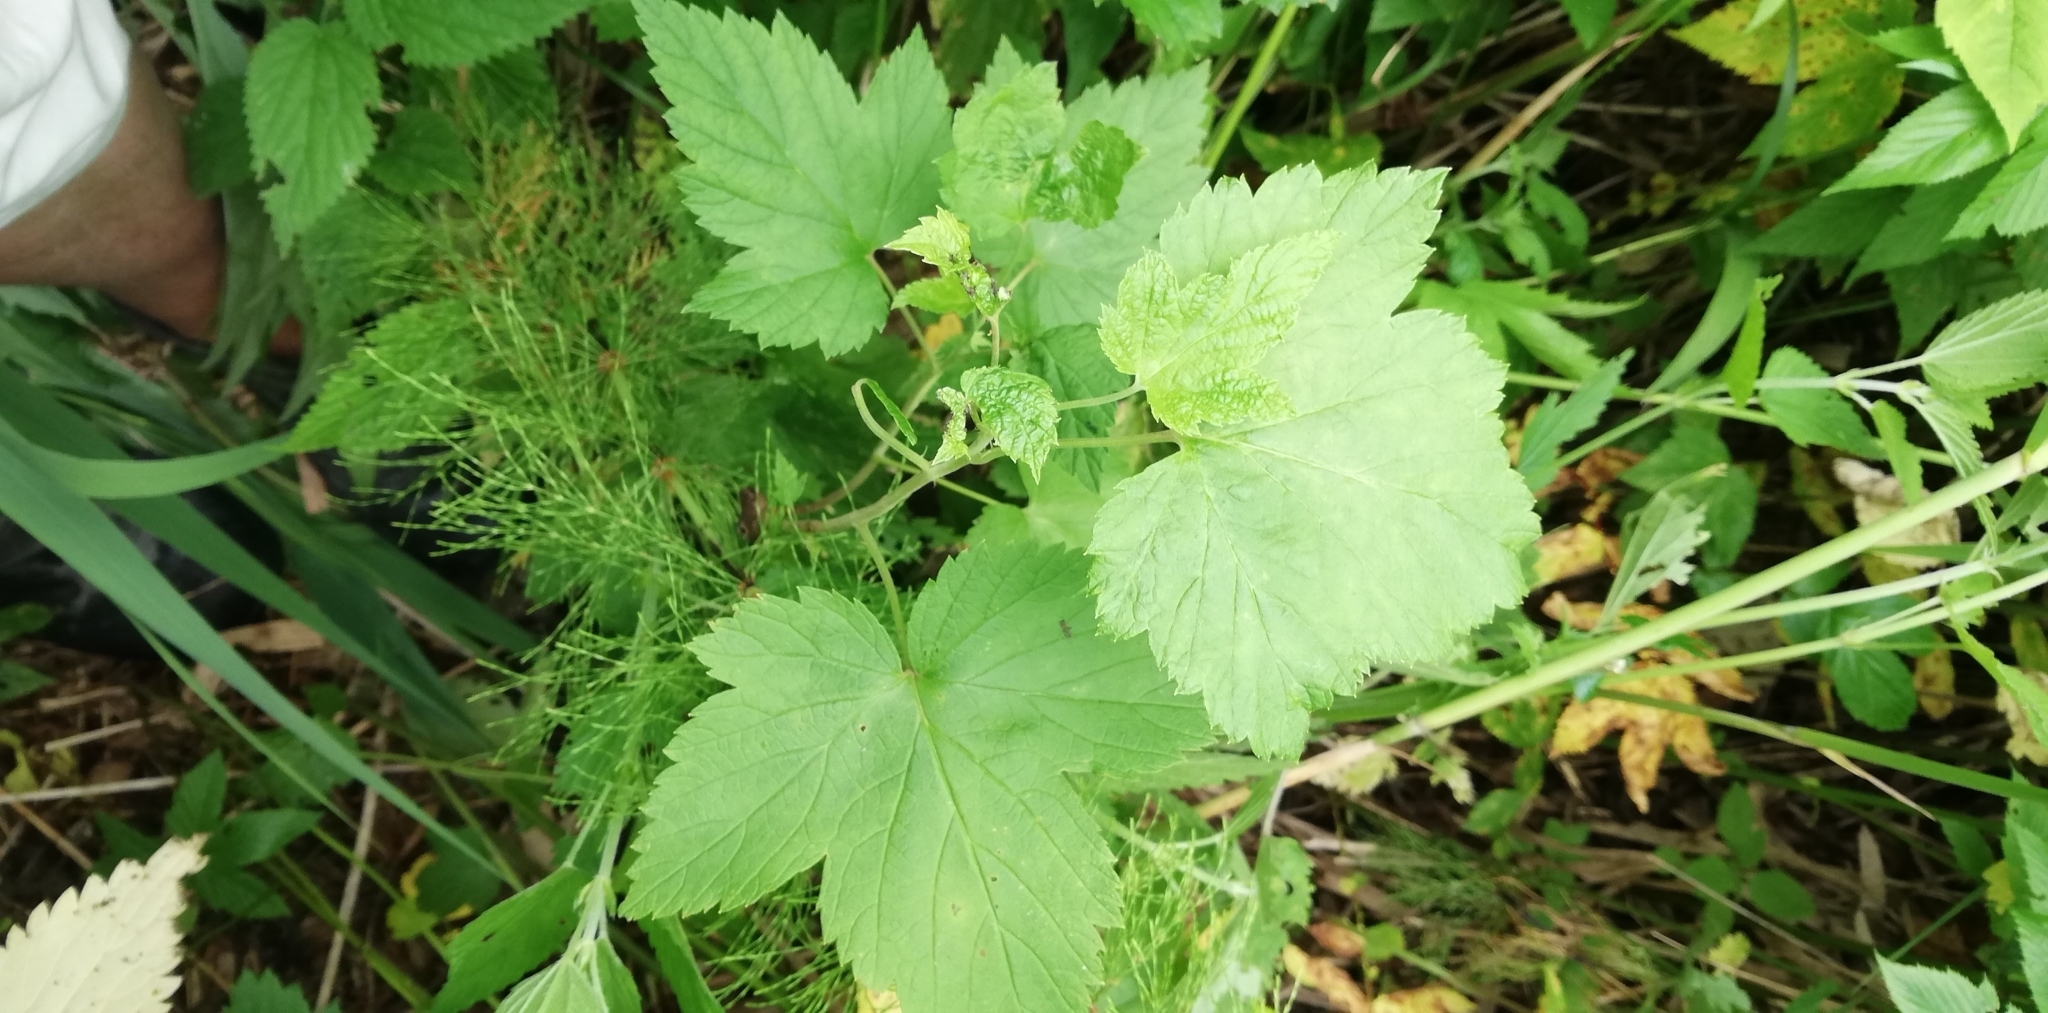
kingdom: Plantae
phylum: Tracheophyta
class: Magnoliopsida
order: Saxifragales
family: Grossulariaceae
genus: Ribes
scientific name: Ribes nigrum
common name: Black currant
